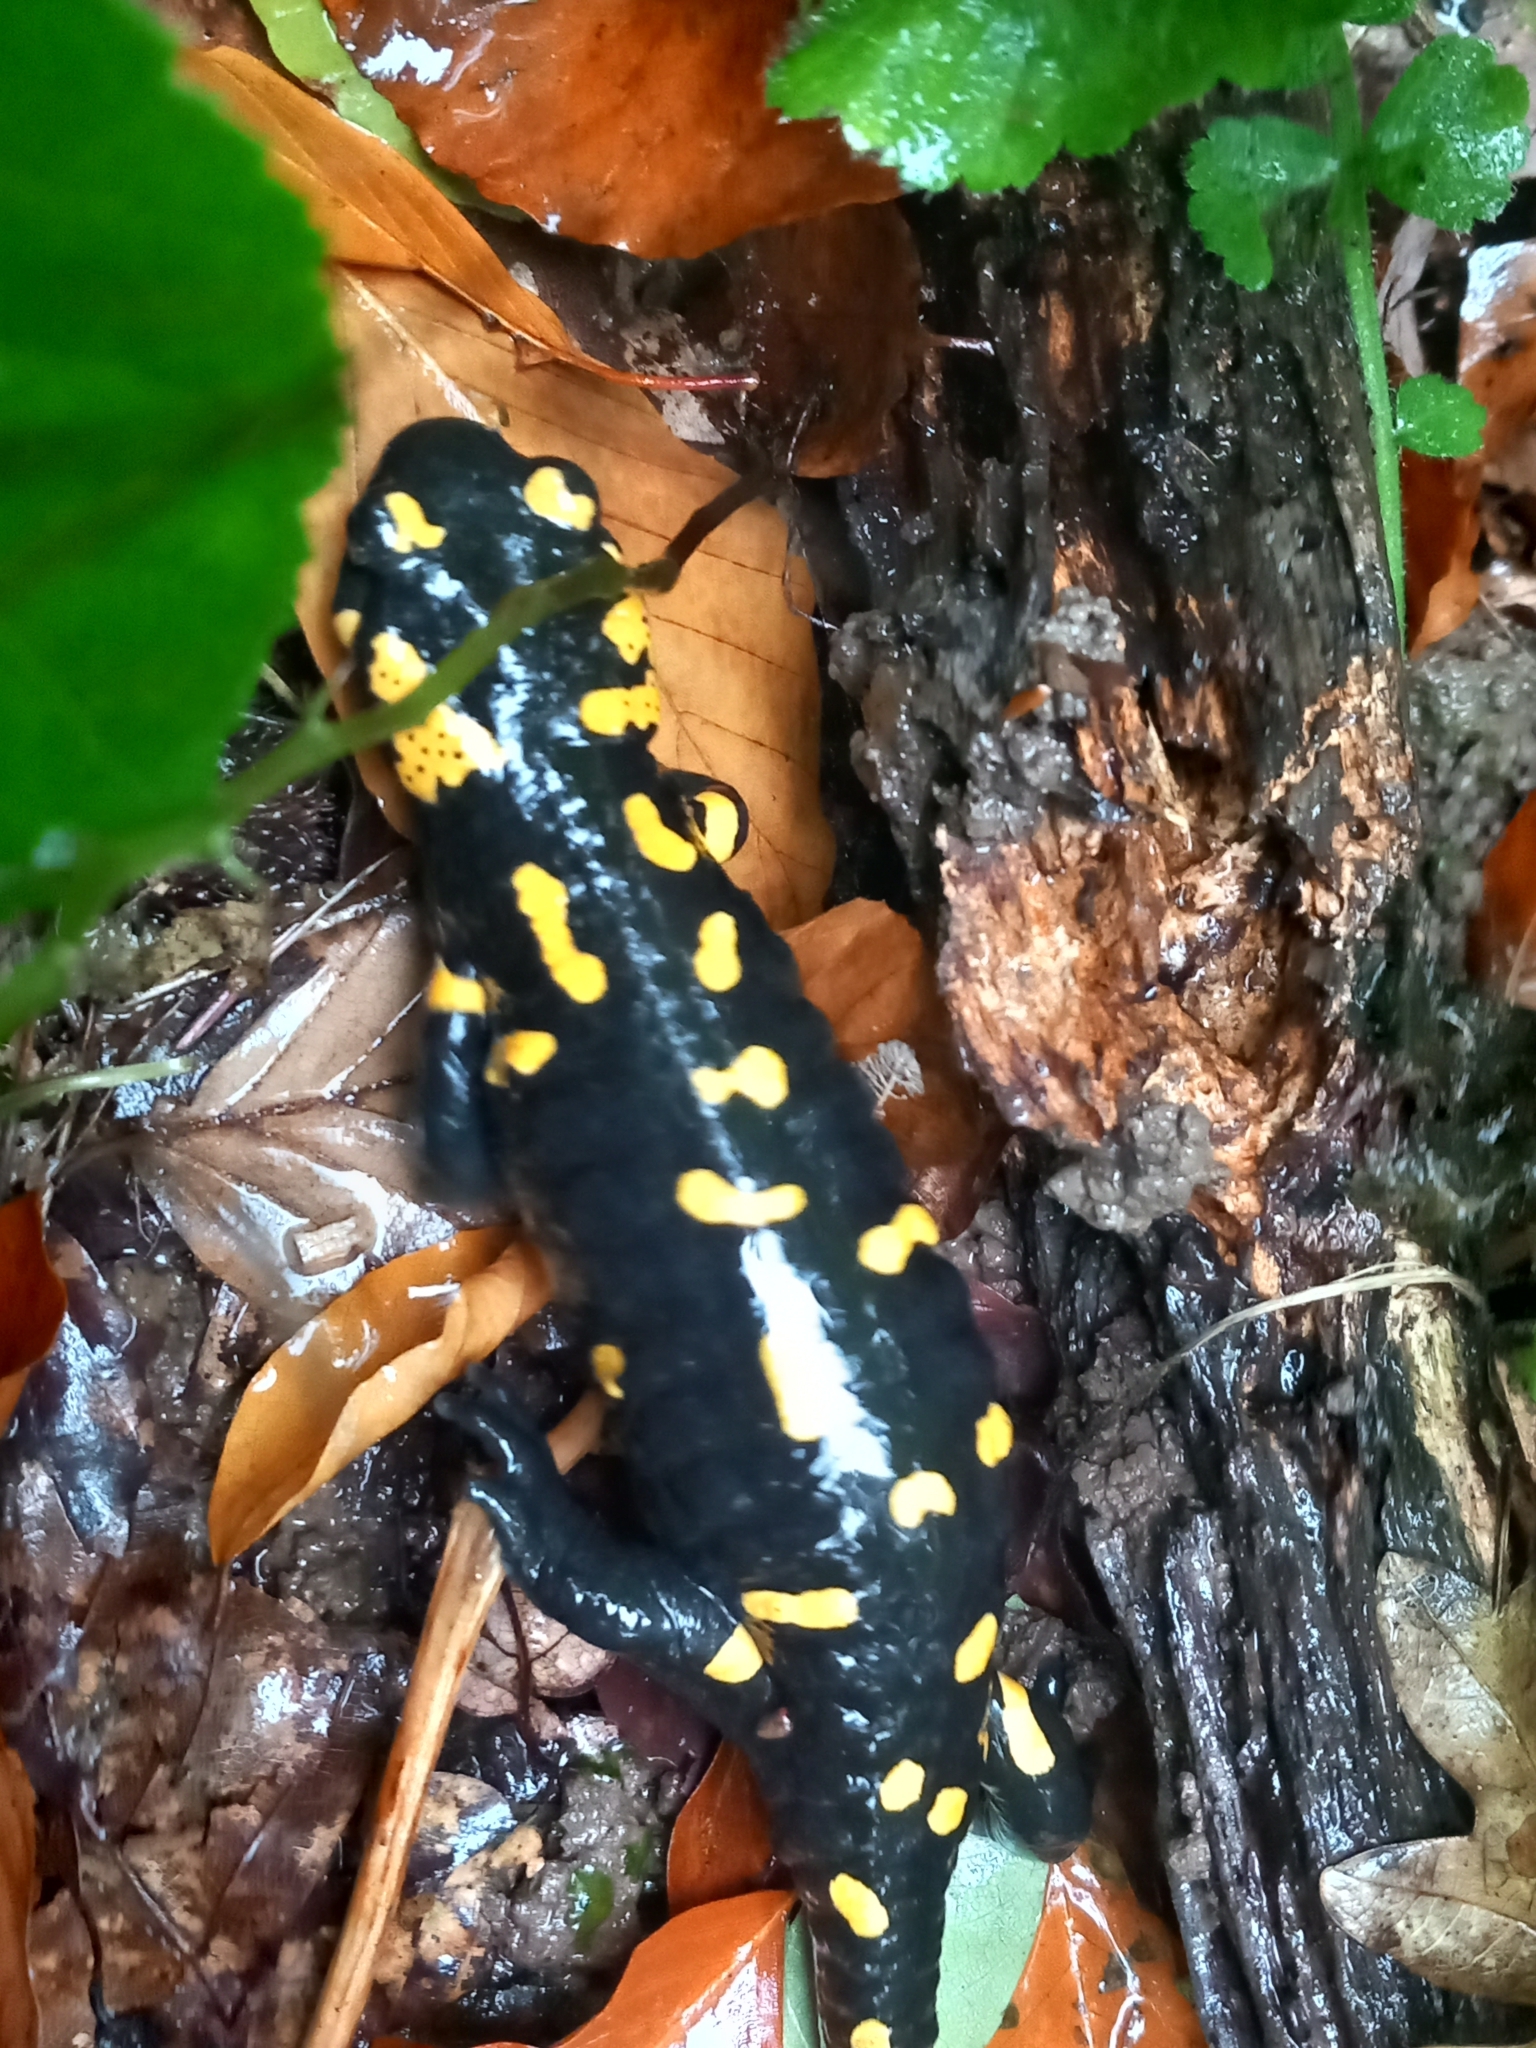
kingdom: Animalia
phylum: Chordata
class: Amphibia
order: Caudata
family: Salamandridae
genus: Salamandra
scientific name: Salamandra salamandra
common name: Fire salamander
